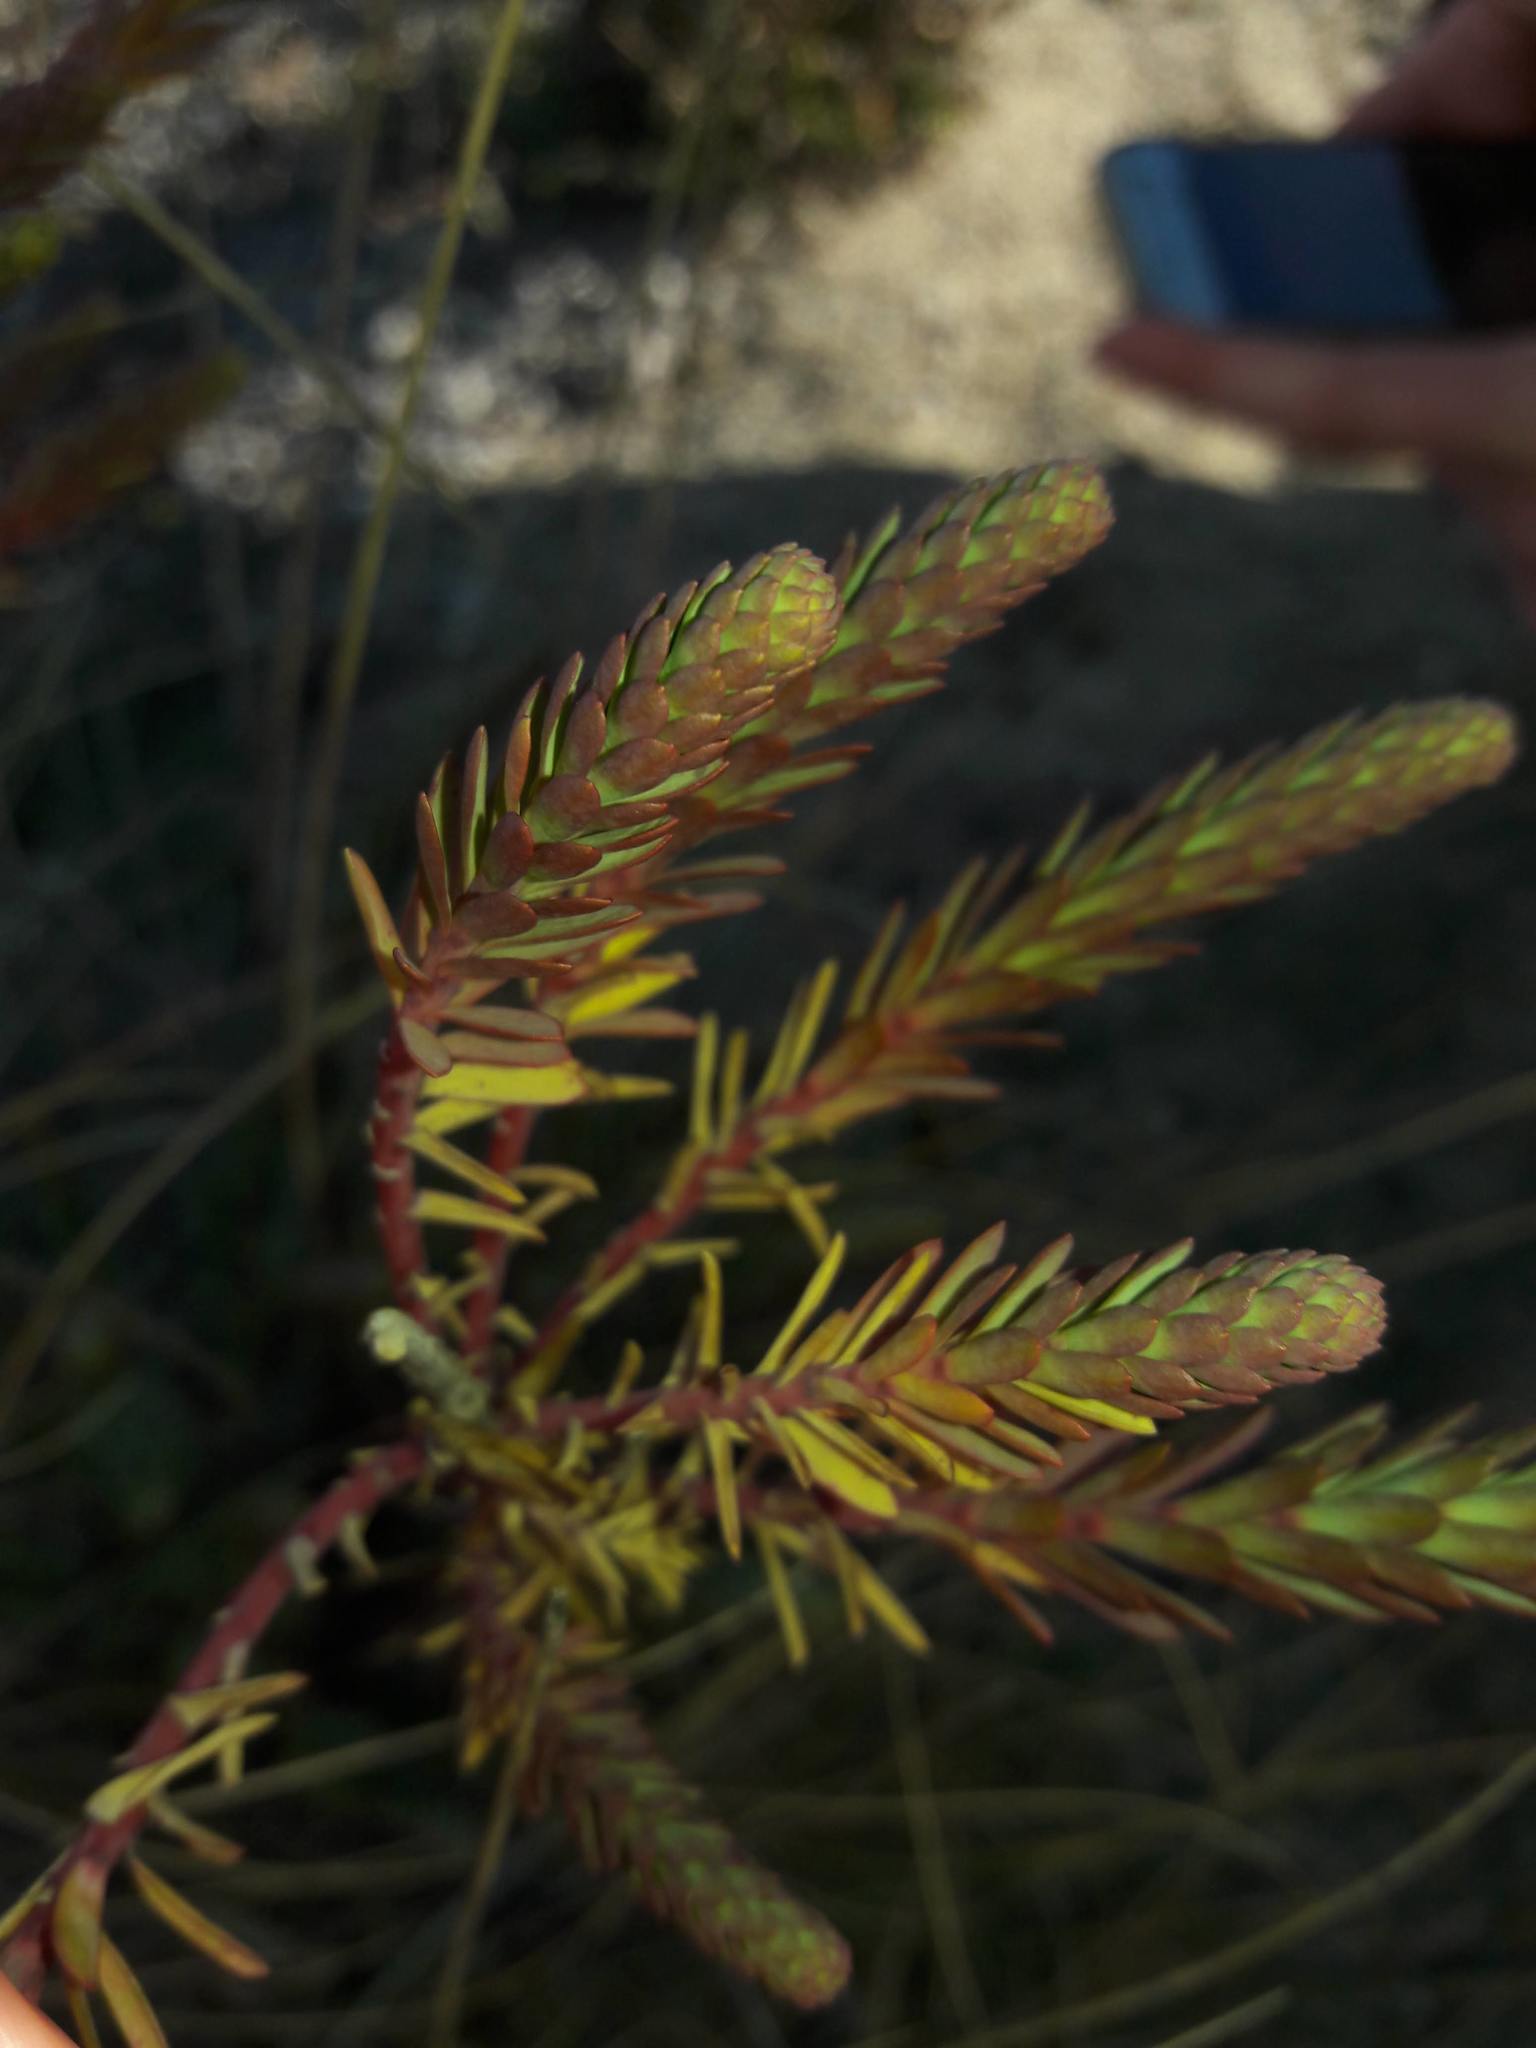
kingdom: Plantae
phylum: Tracheophyta
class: Magnoliopsida
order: Malpighiales
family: Euphorbiaceae
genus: Euphorbia
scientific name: Euphorbia paralias
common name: Sea spurge
